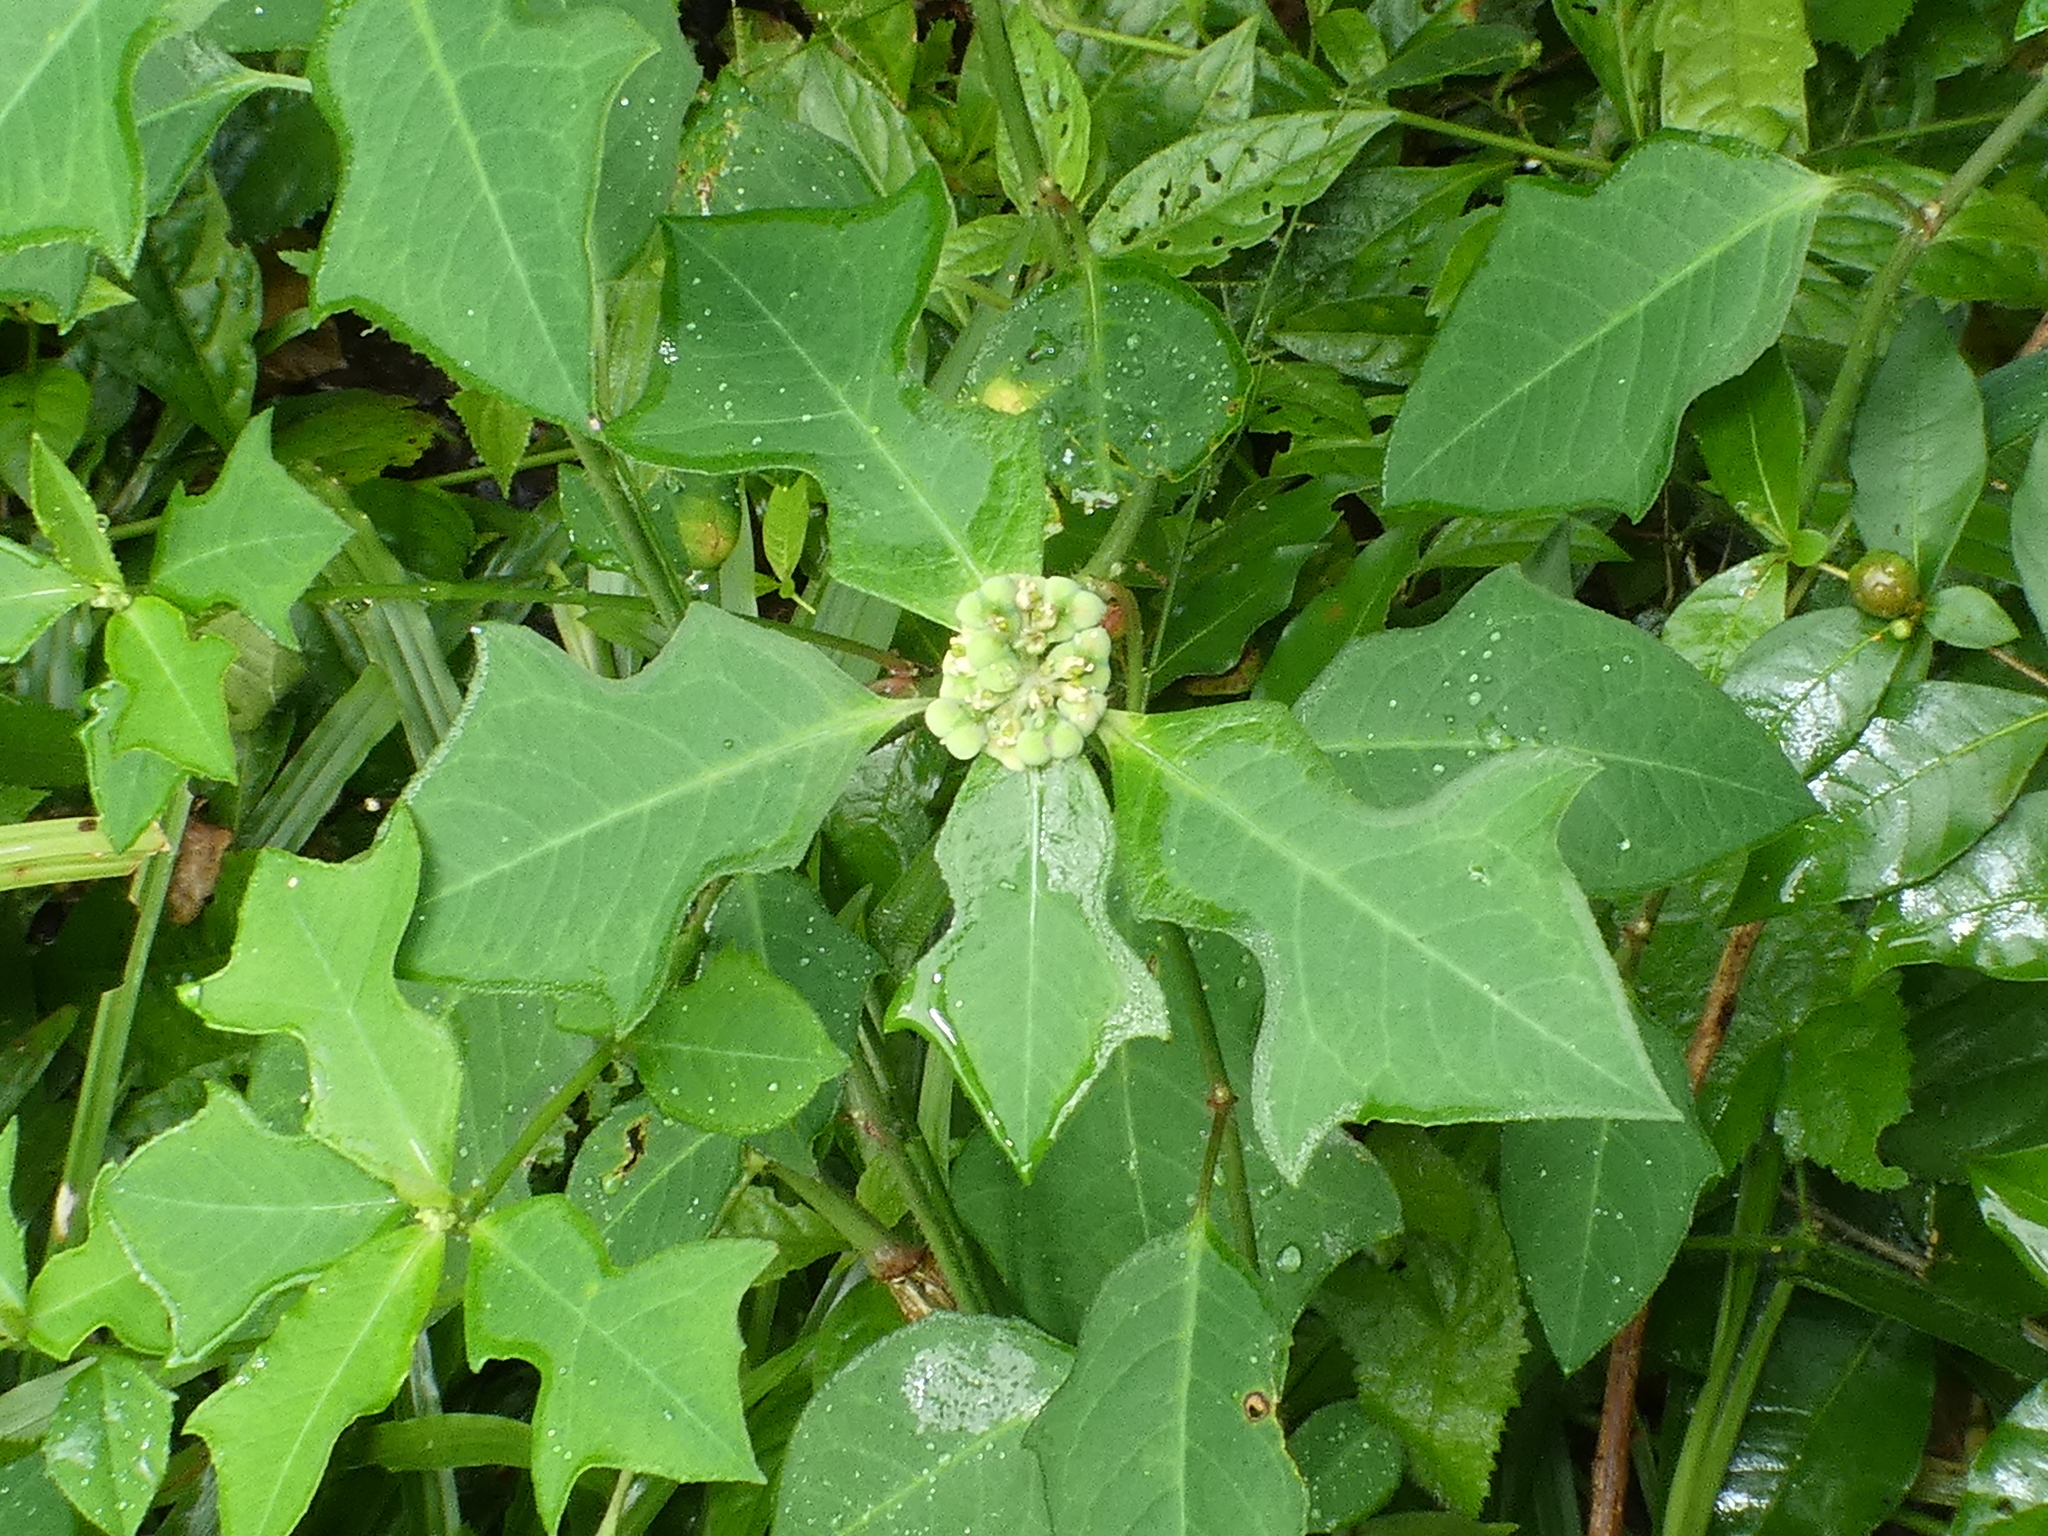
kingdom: Plantae
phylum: Tracheophyta
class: Magnoliopsida
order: Malpighiales
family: Euphorbiaceae
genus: Euphorbia
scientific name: Euphorbia heterophylla
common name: Mexican fireplant
